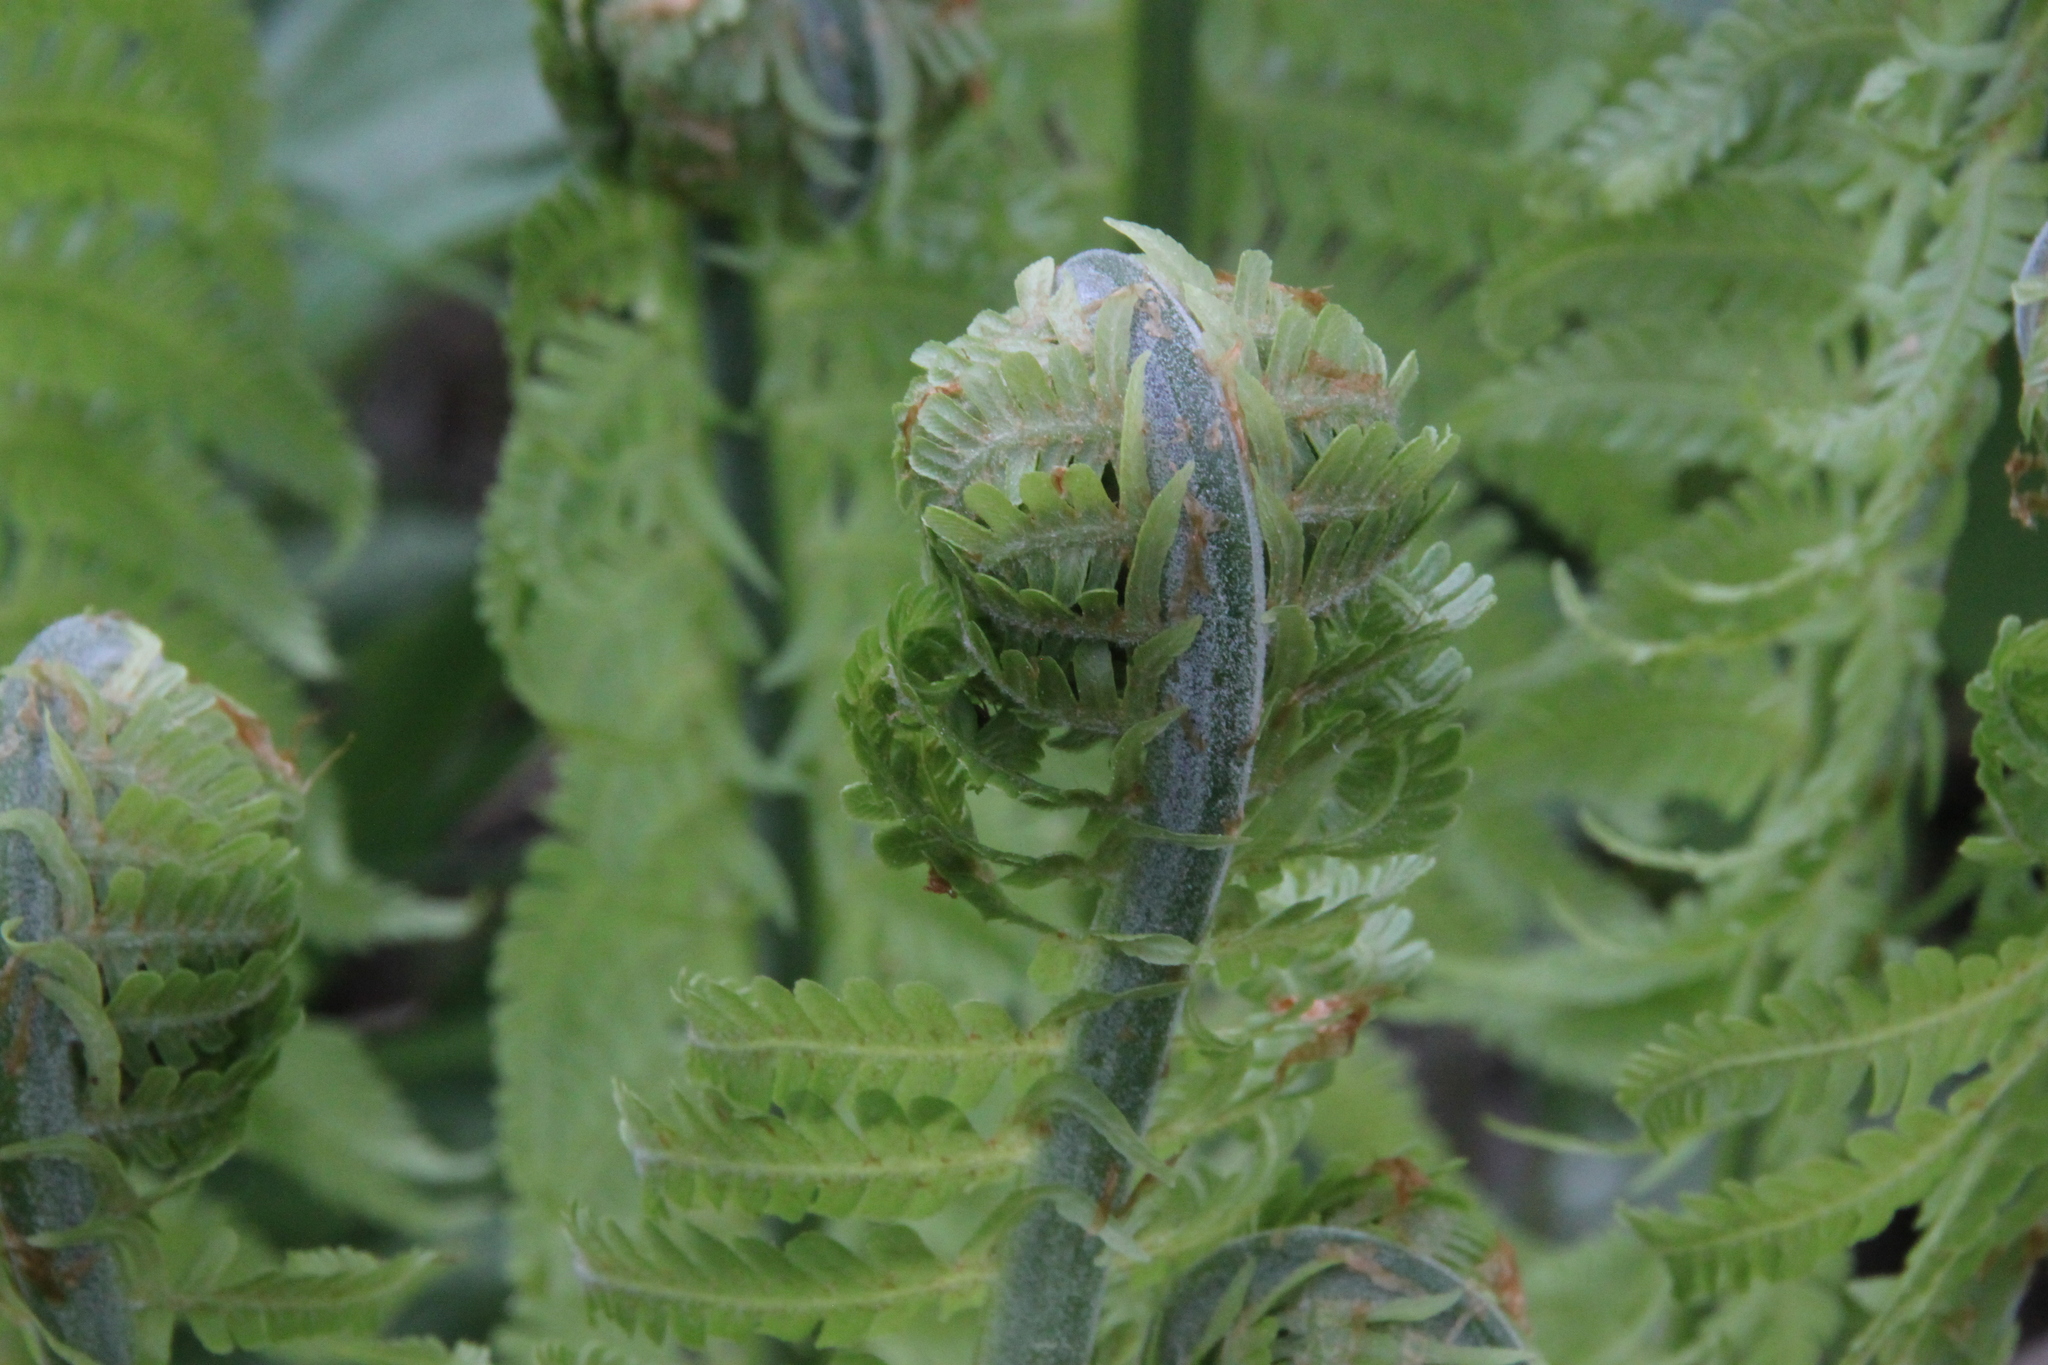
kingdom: Plantae
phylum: Tracheophyta
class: Polypodiopsida
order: Polypodiales
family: Onocleaceae
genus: Matteuccia
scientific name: Matteuccia struthiopteris
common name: Ostrich fern
